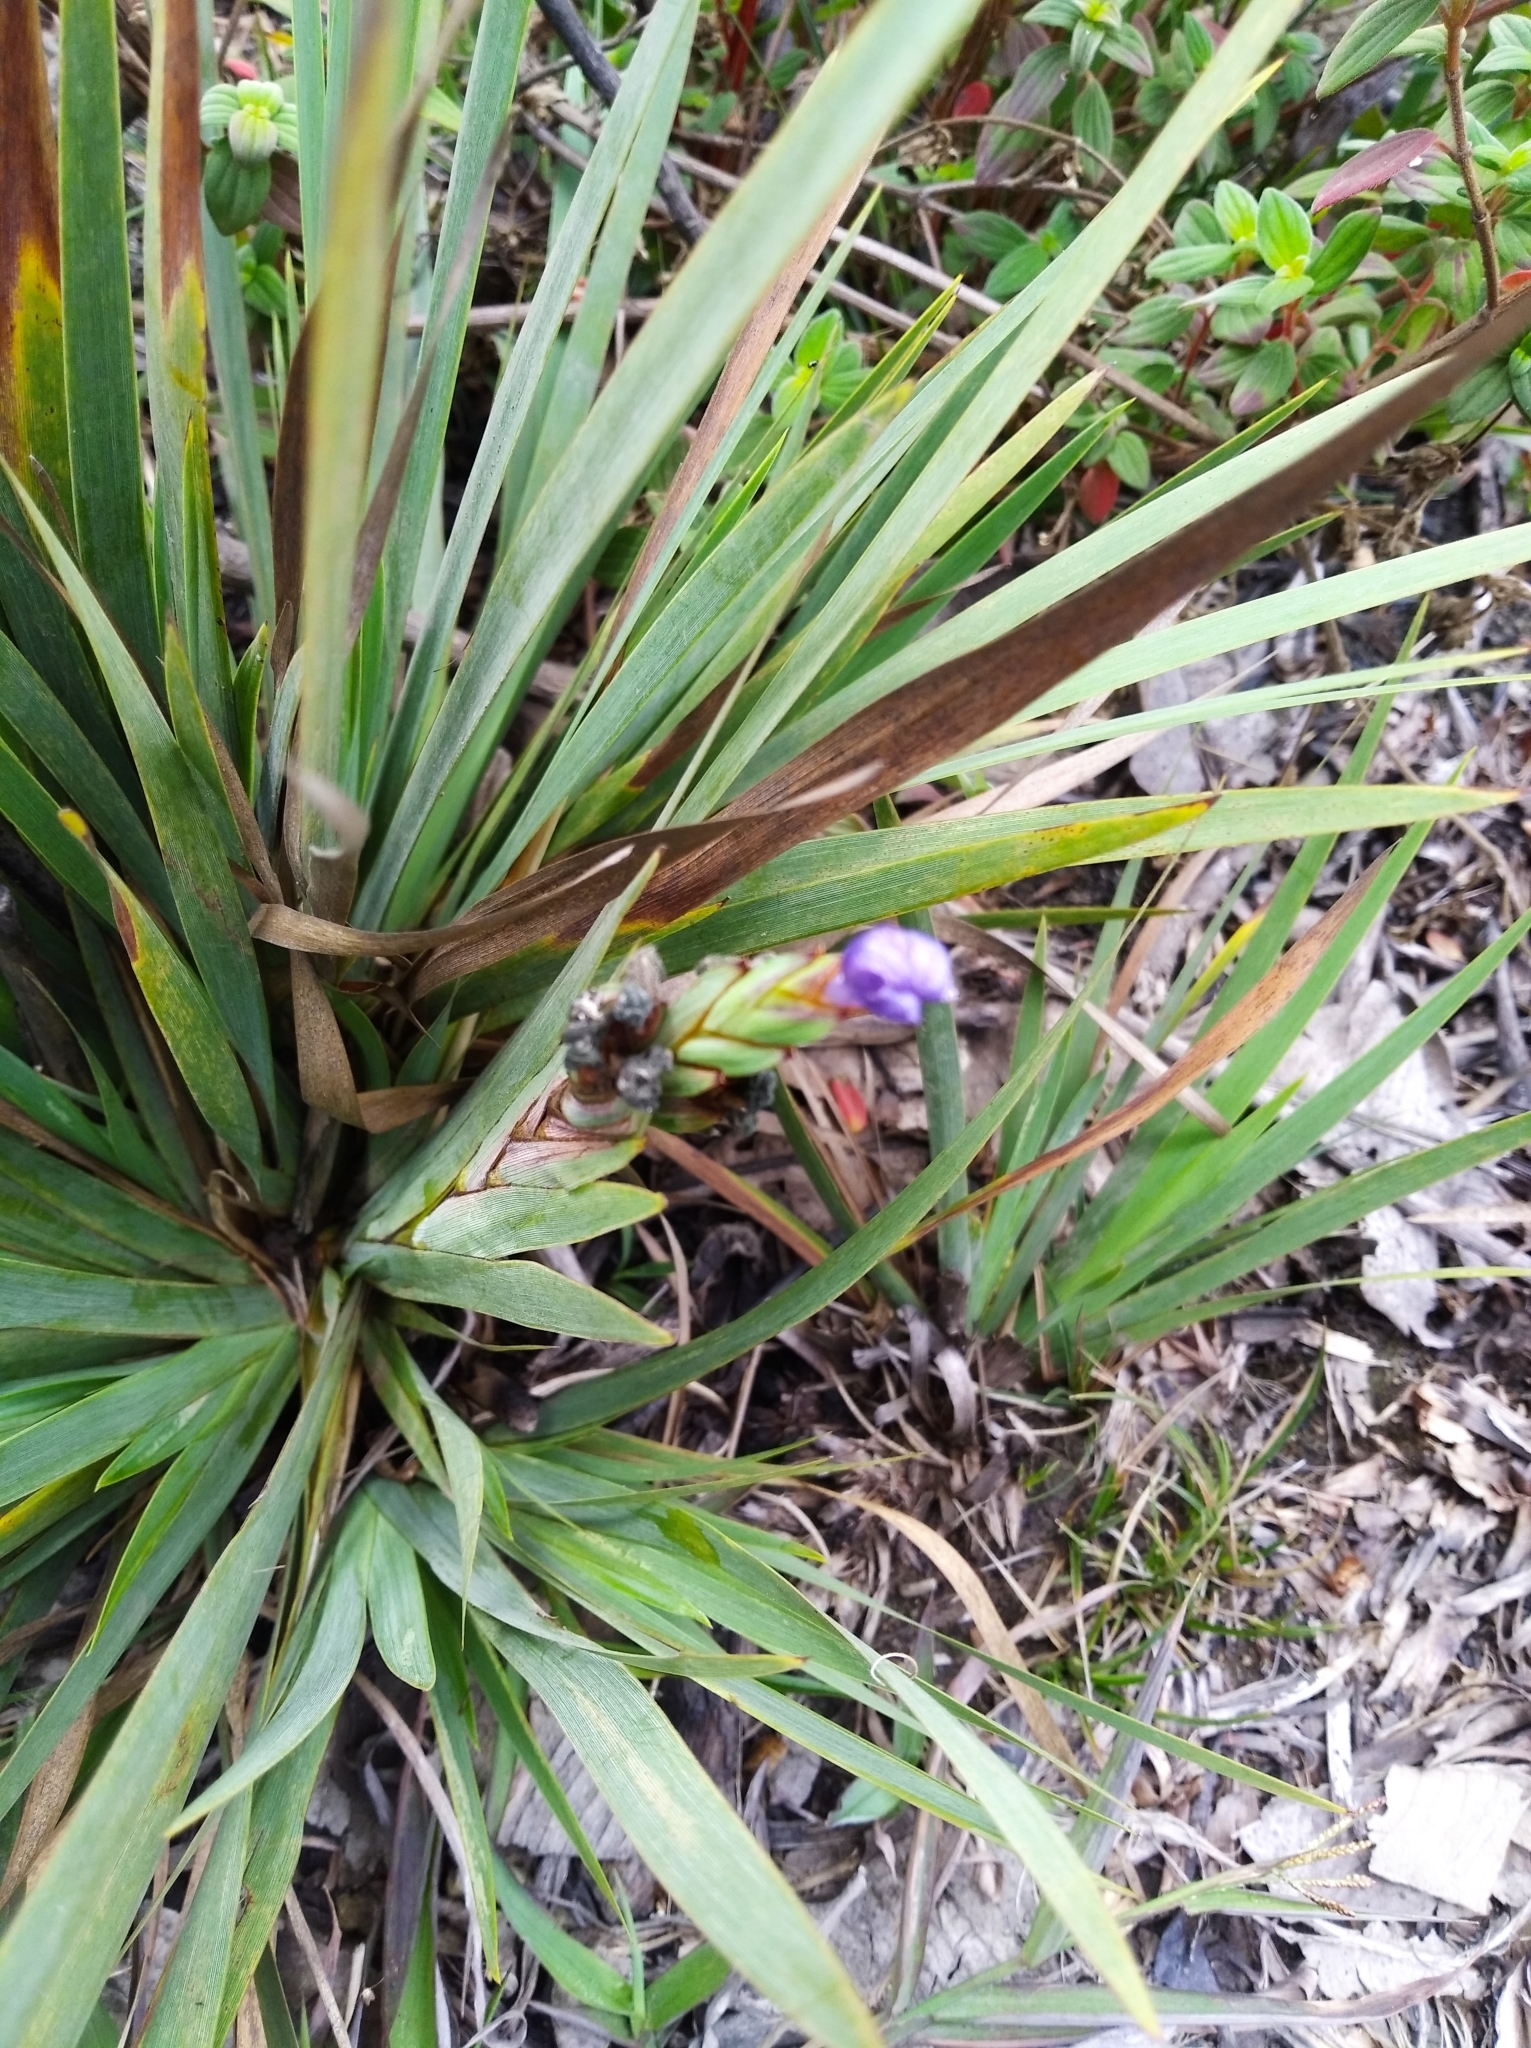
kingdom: Plantae
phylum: Tracheophyta
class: Liliopsida
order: Asparagales
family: Iridaceae
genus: Orthrosanthus
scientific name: Orthrosanthus acorifolius
